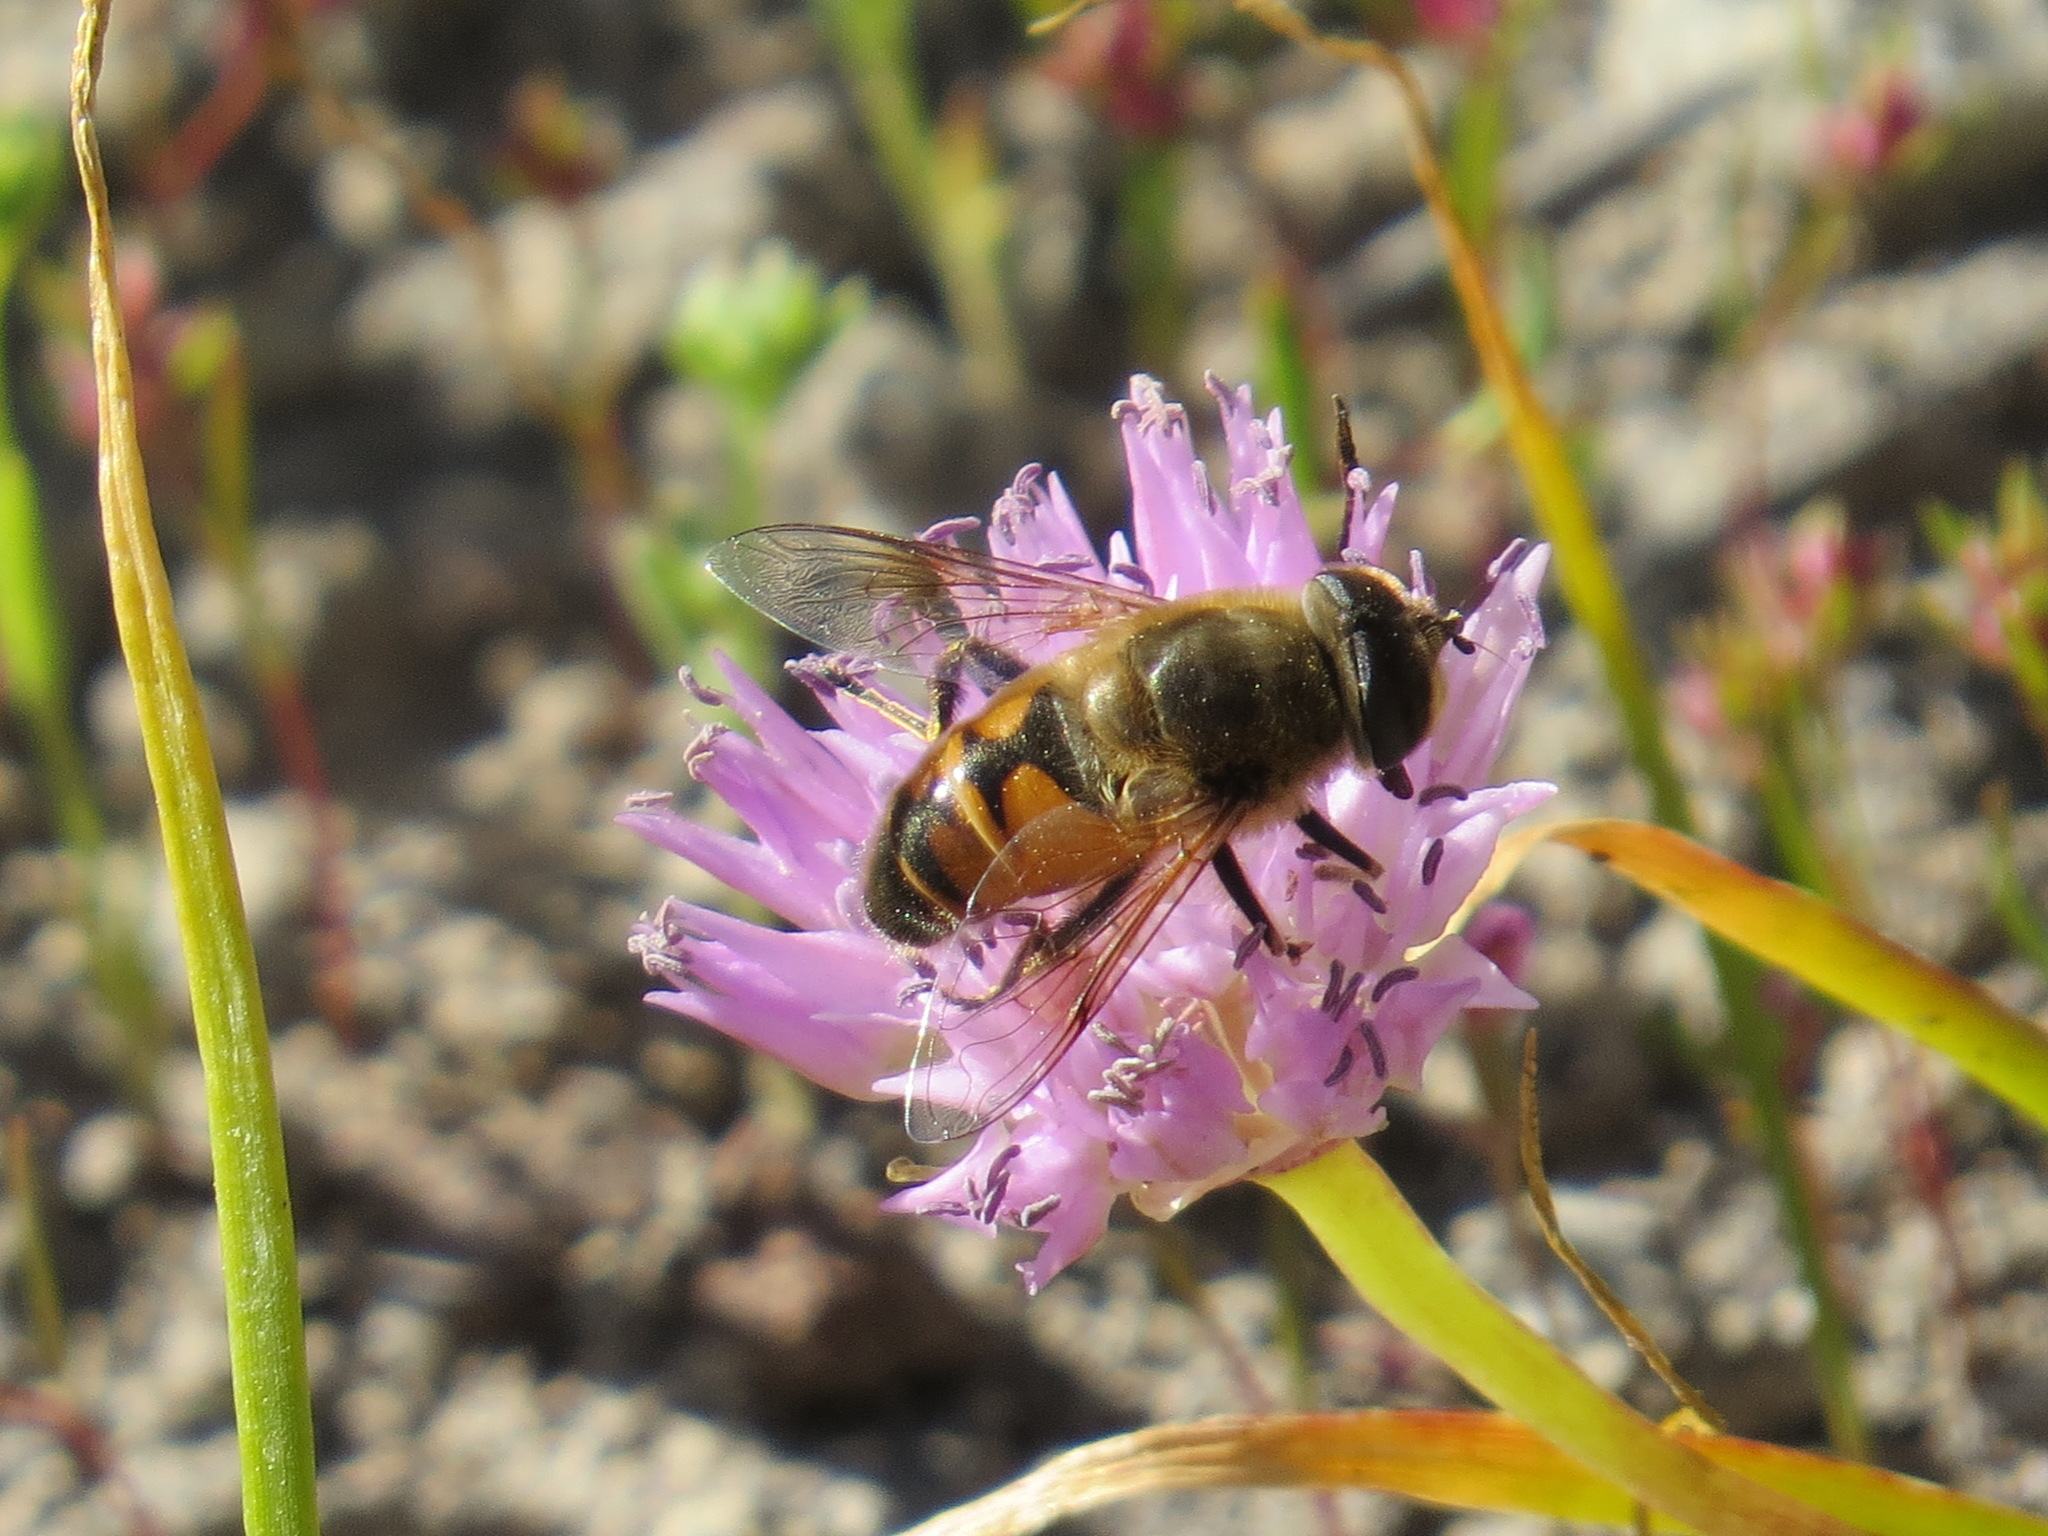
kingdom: Animalia
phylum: Arthropoda
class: Insecta
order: Diptera
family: Syrphidae
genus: Eristalis
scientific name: Eristalis tenax
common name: Drone fly
